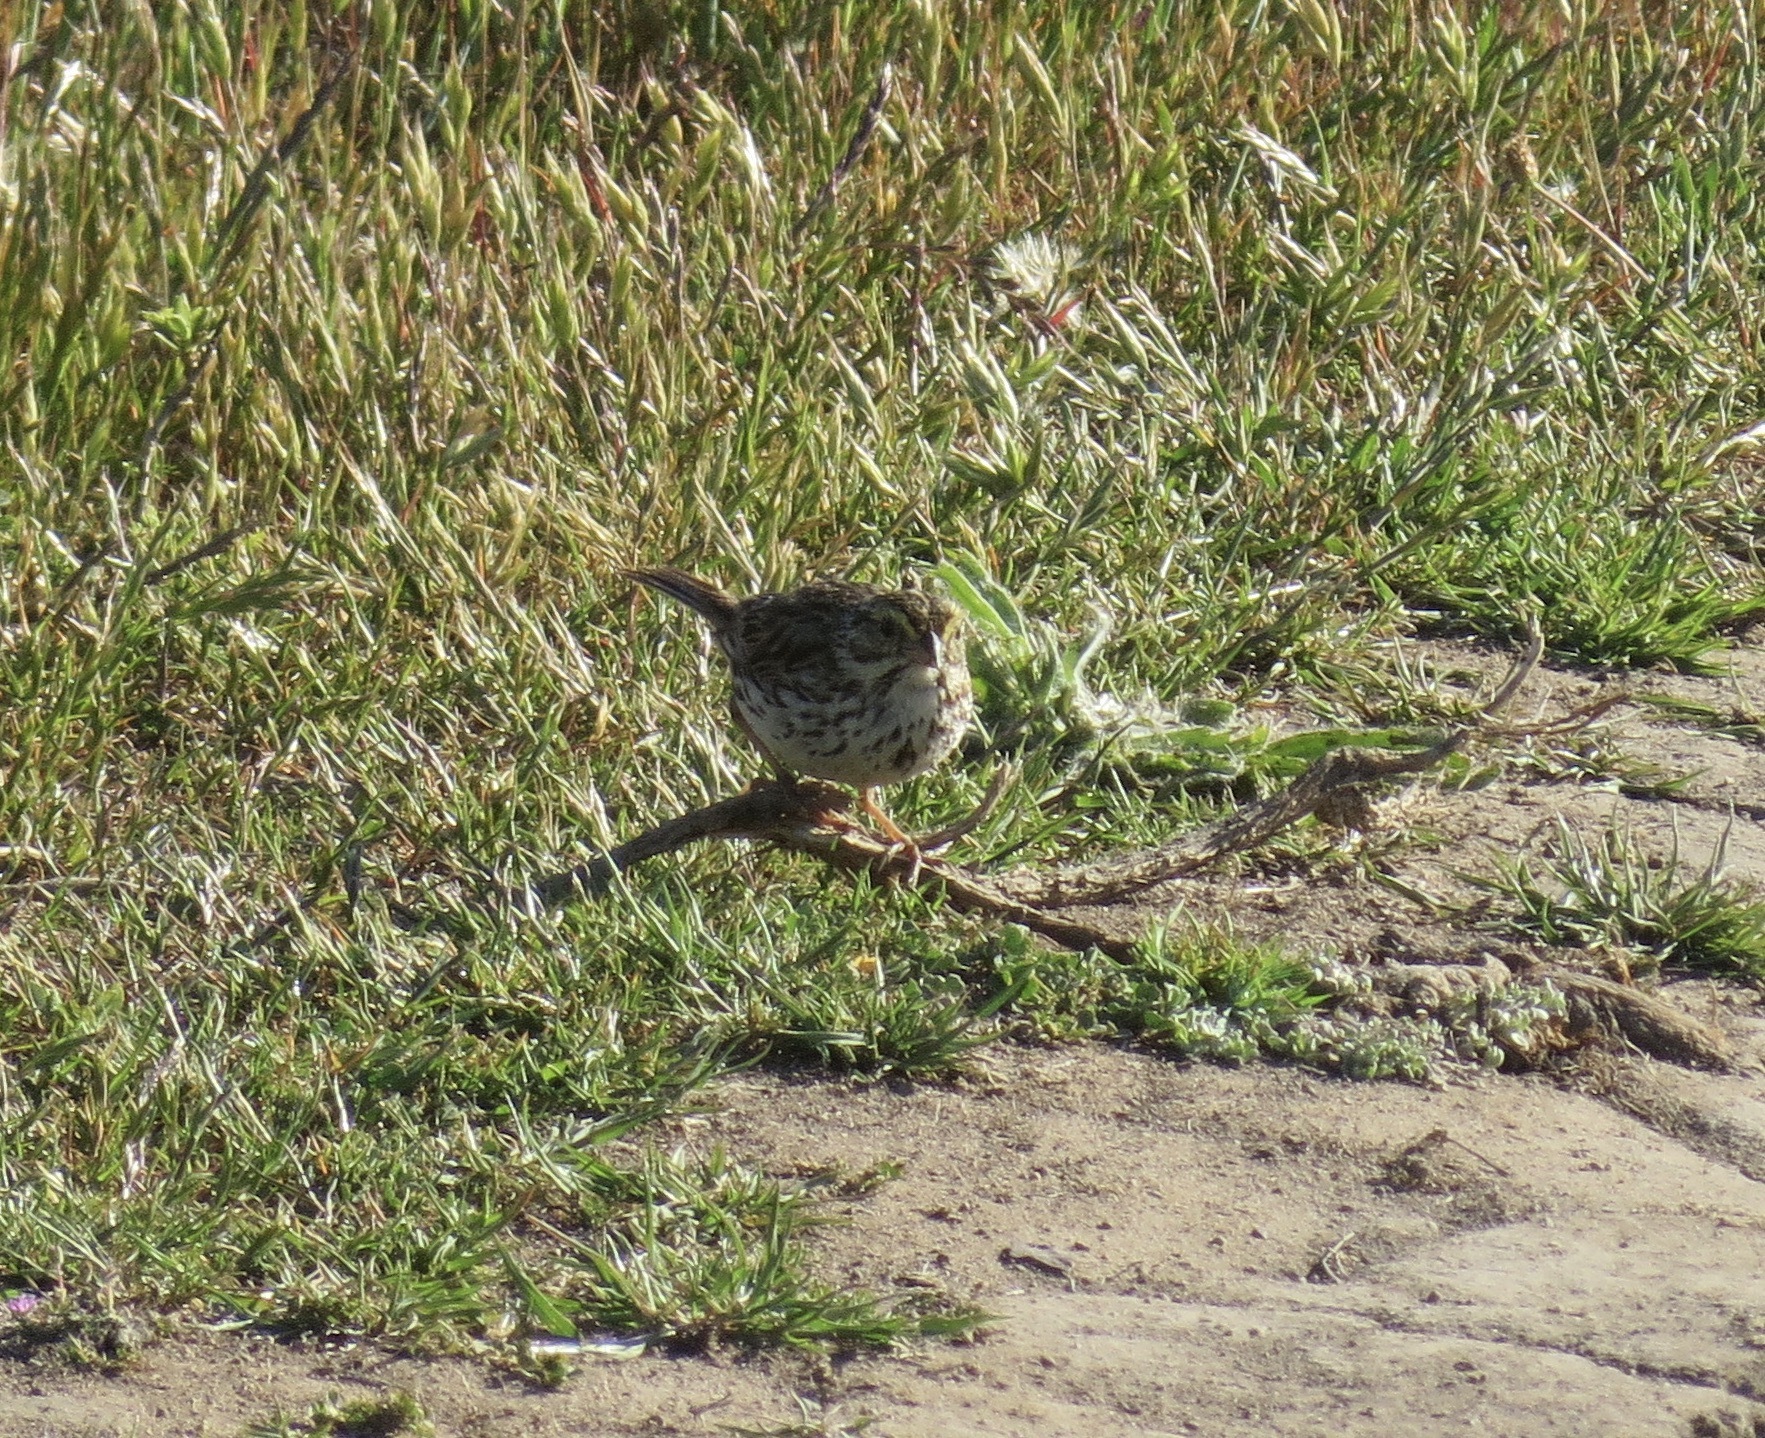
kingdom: Animalia
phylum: Chordata
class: Aves
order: Passeriformes
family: Passerellidae
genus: Passerculus
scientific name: Passerculus sandwichensis
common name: Savannah sparrow
